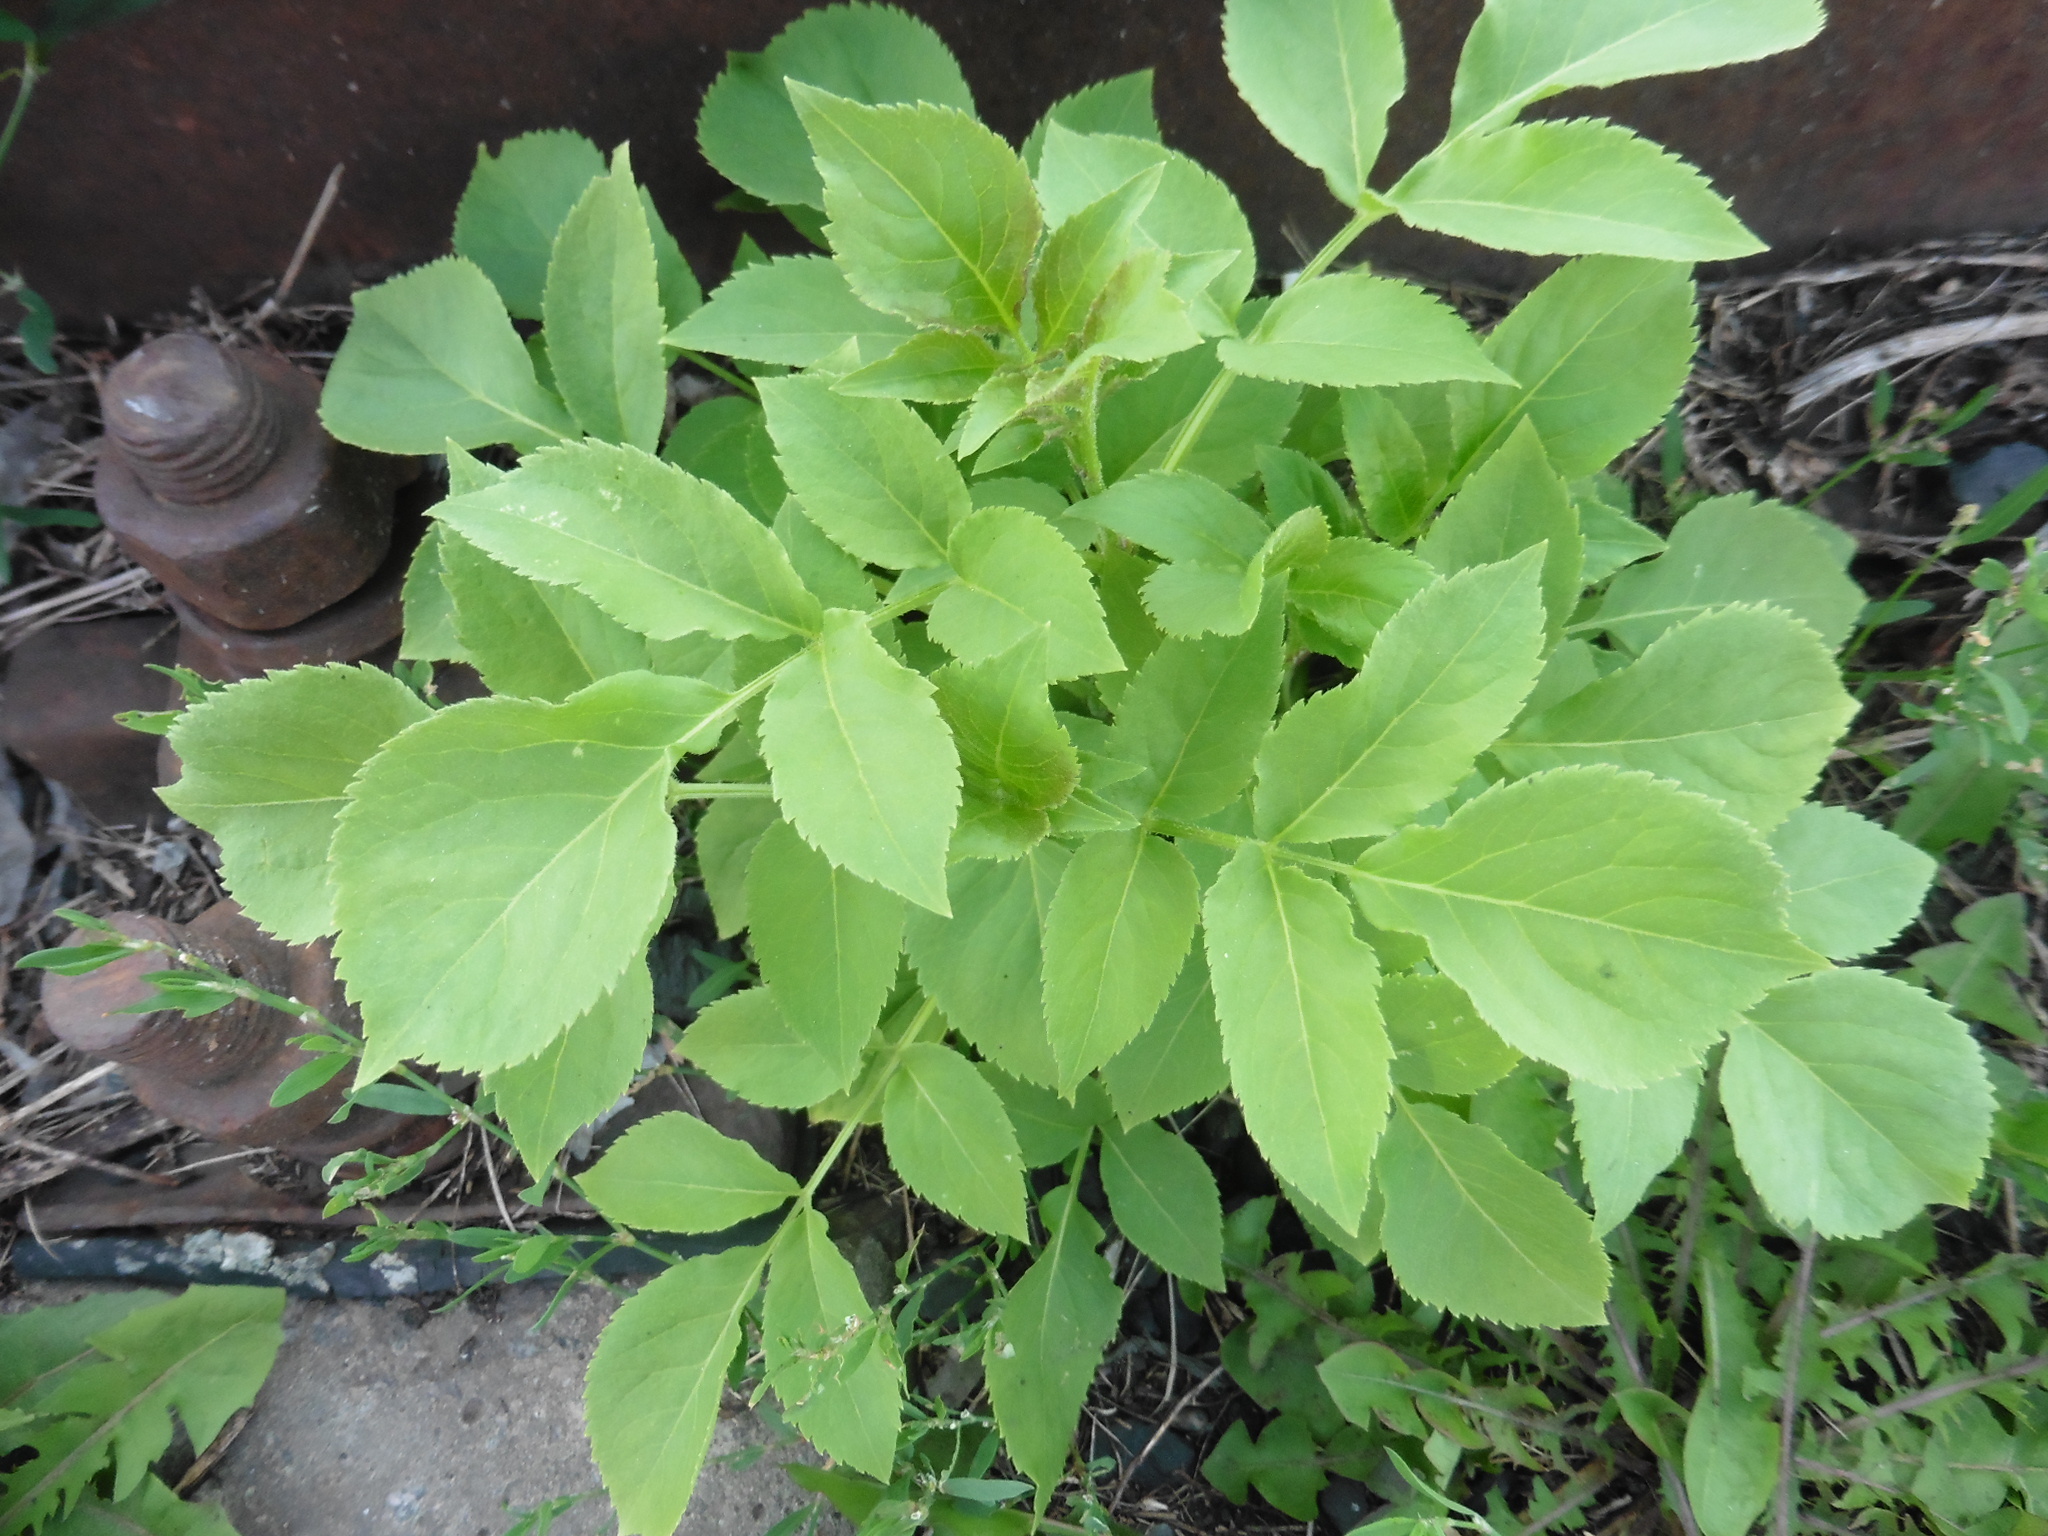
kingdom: Plantae
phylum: Tracheophyta
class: Magnoliopsida
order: Dipsacales
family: Viburnaceae
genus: Sambucus
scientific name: Sambucus racemosa
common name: Red-berried elder
